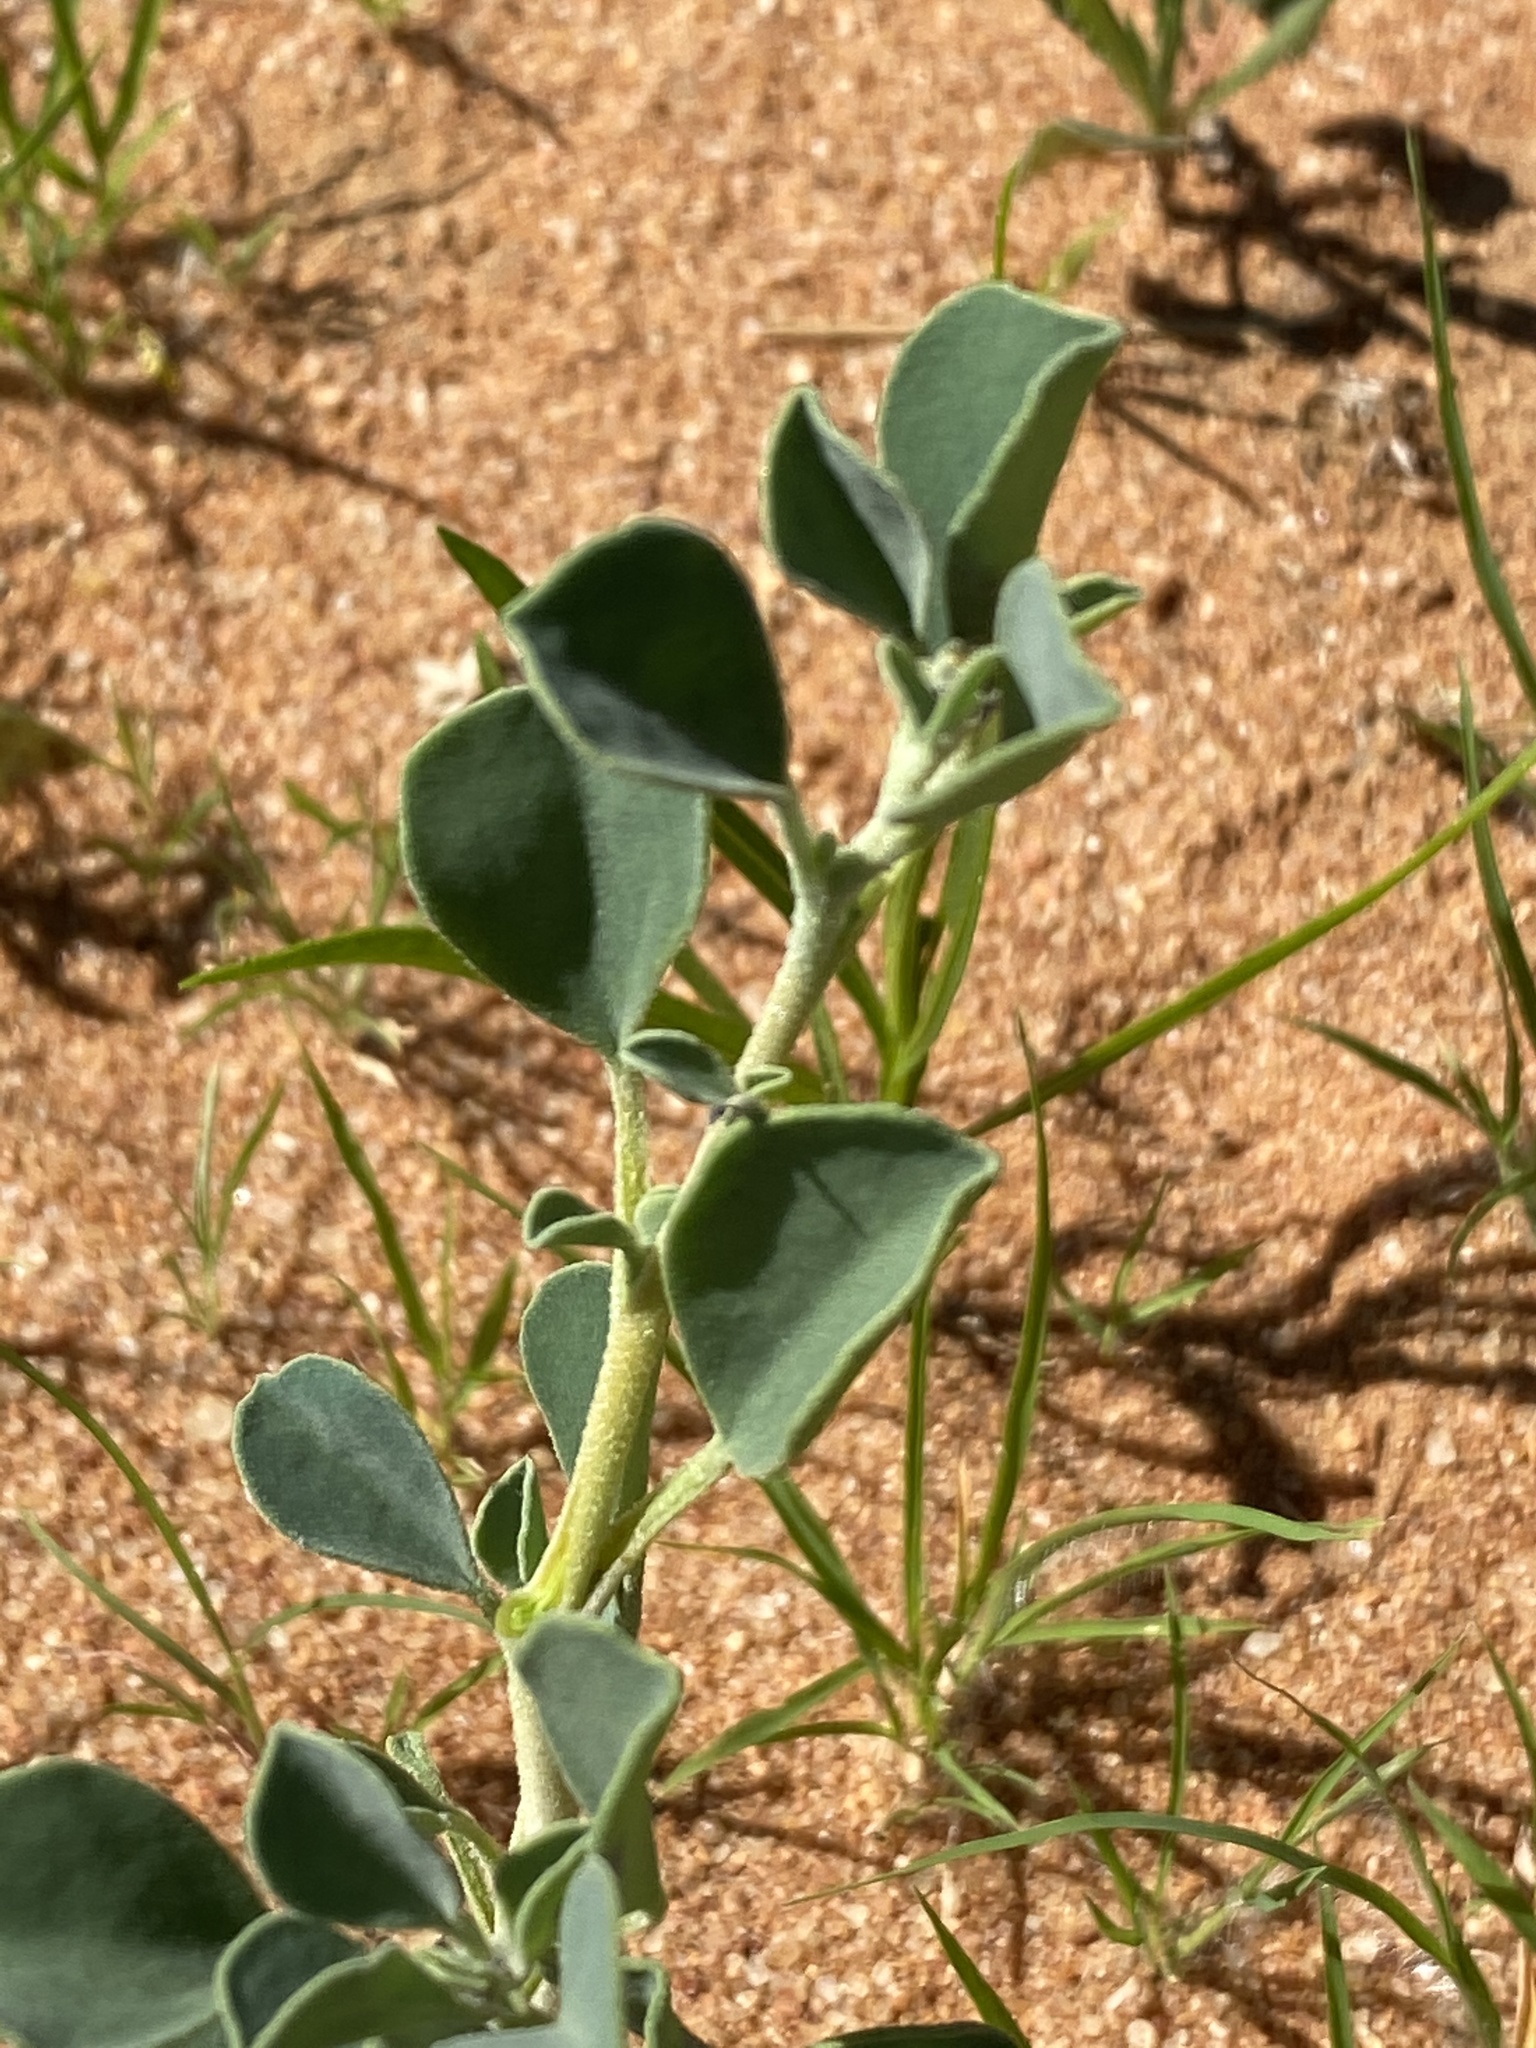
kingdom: Plantae
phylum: Tracheophyta
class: Magnoliopsida
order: Caryophyllales
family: Aizoaceae
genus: Tribulocarpus
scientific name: Tribulocarpus dimorphanthus
